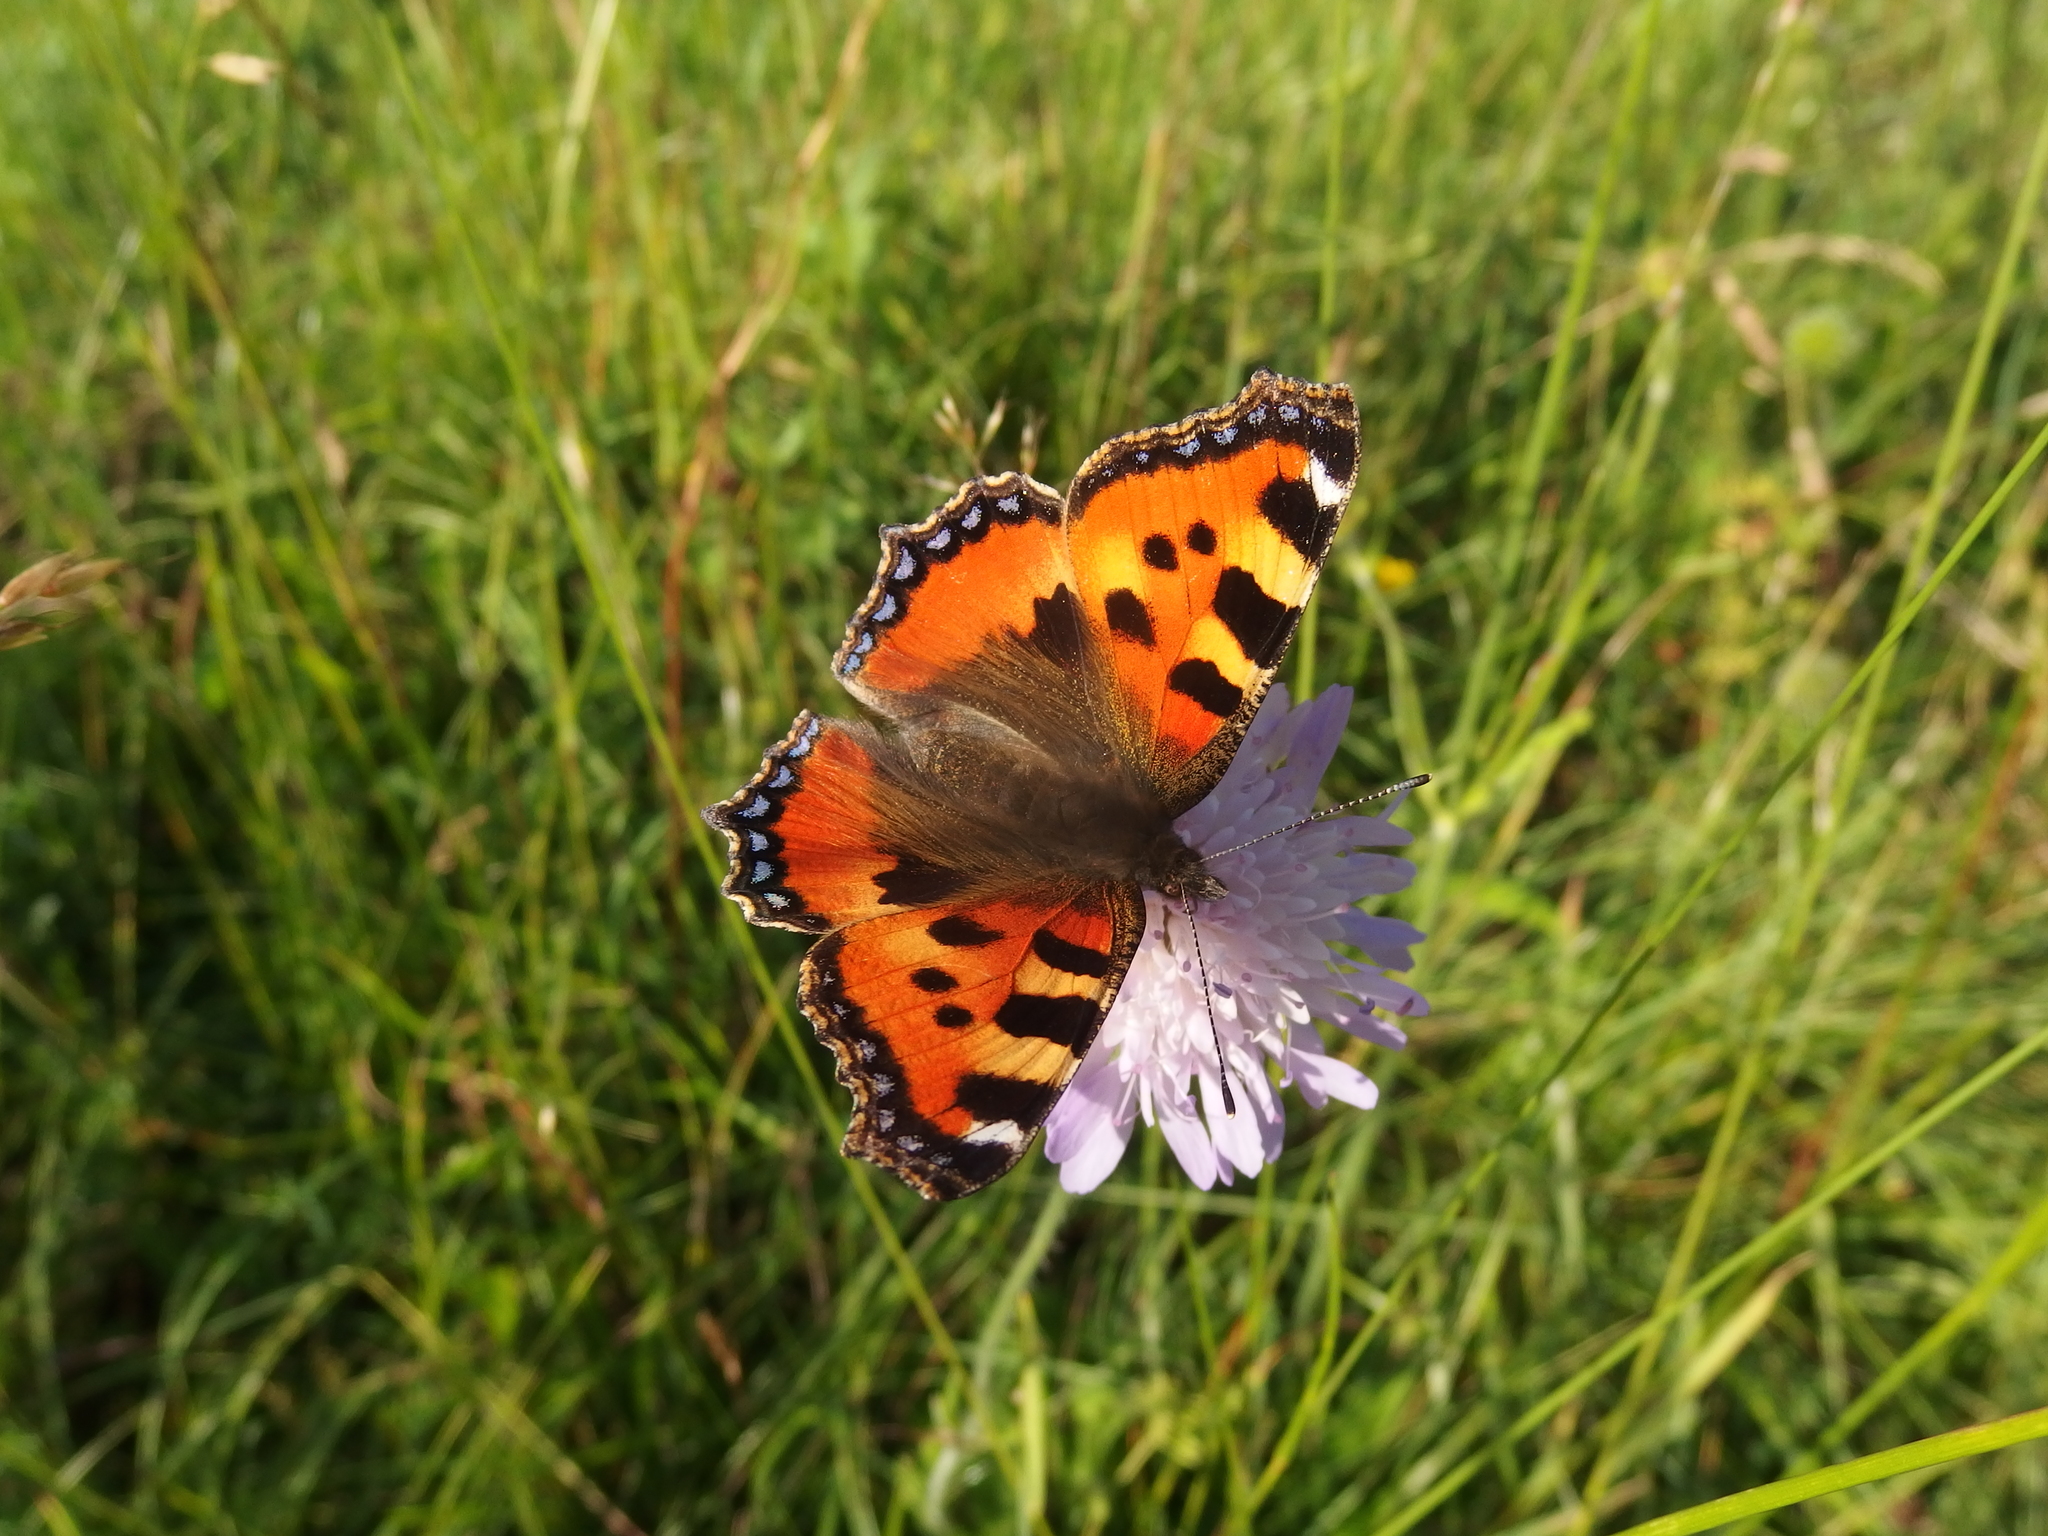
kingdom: Animalia
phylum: Arthropoda
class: Insecta
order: Lepidoptera
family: Nymphalidae
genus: Aglais
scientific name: Aglais urticae
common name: Small tortoiseshell
